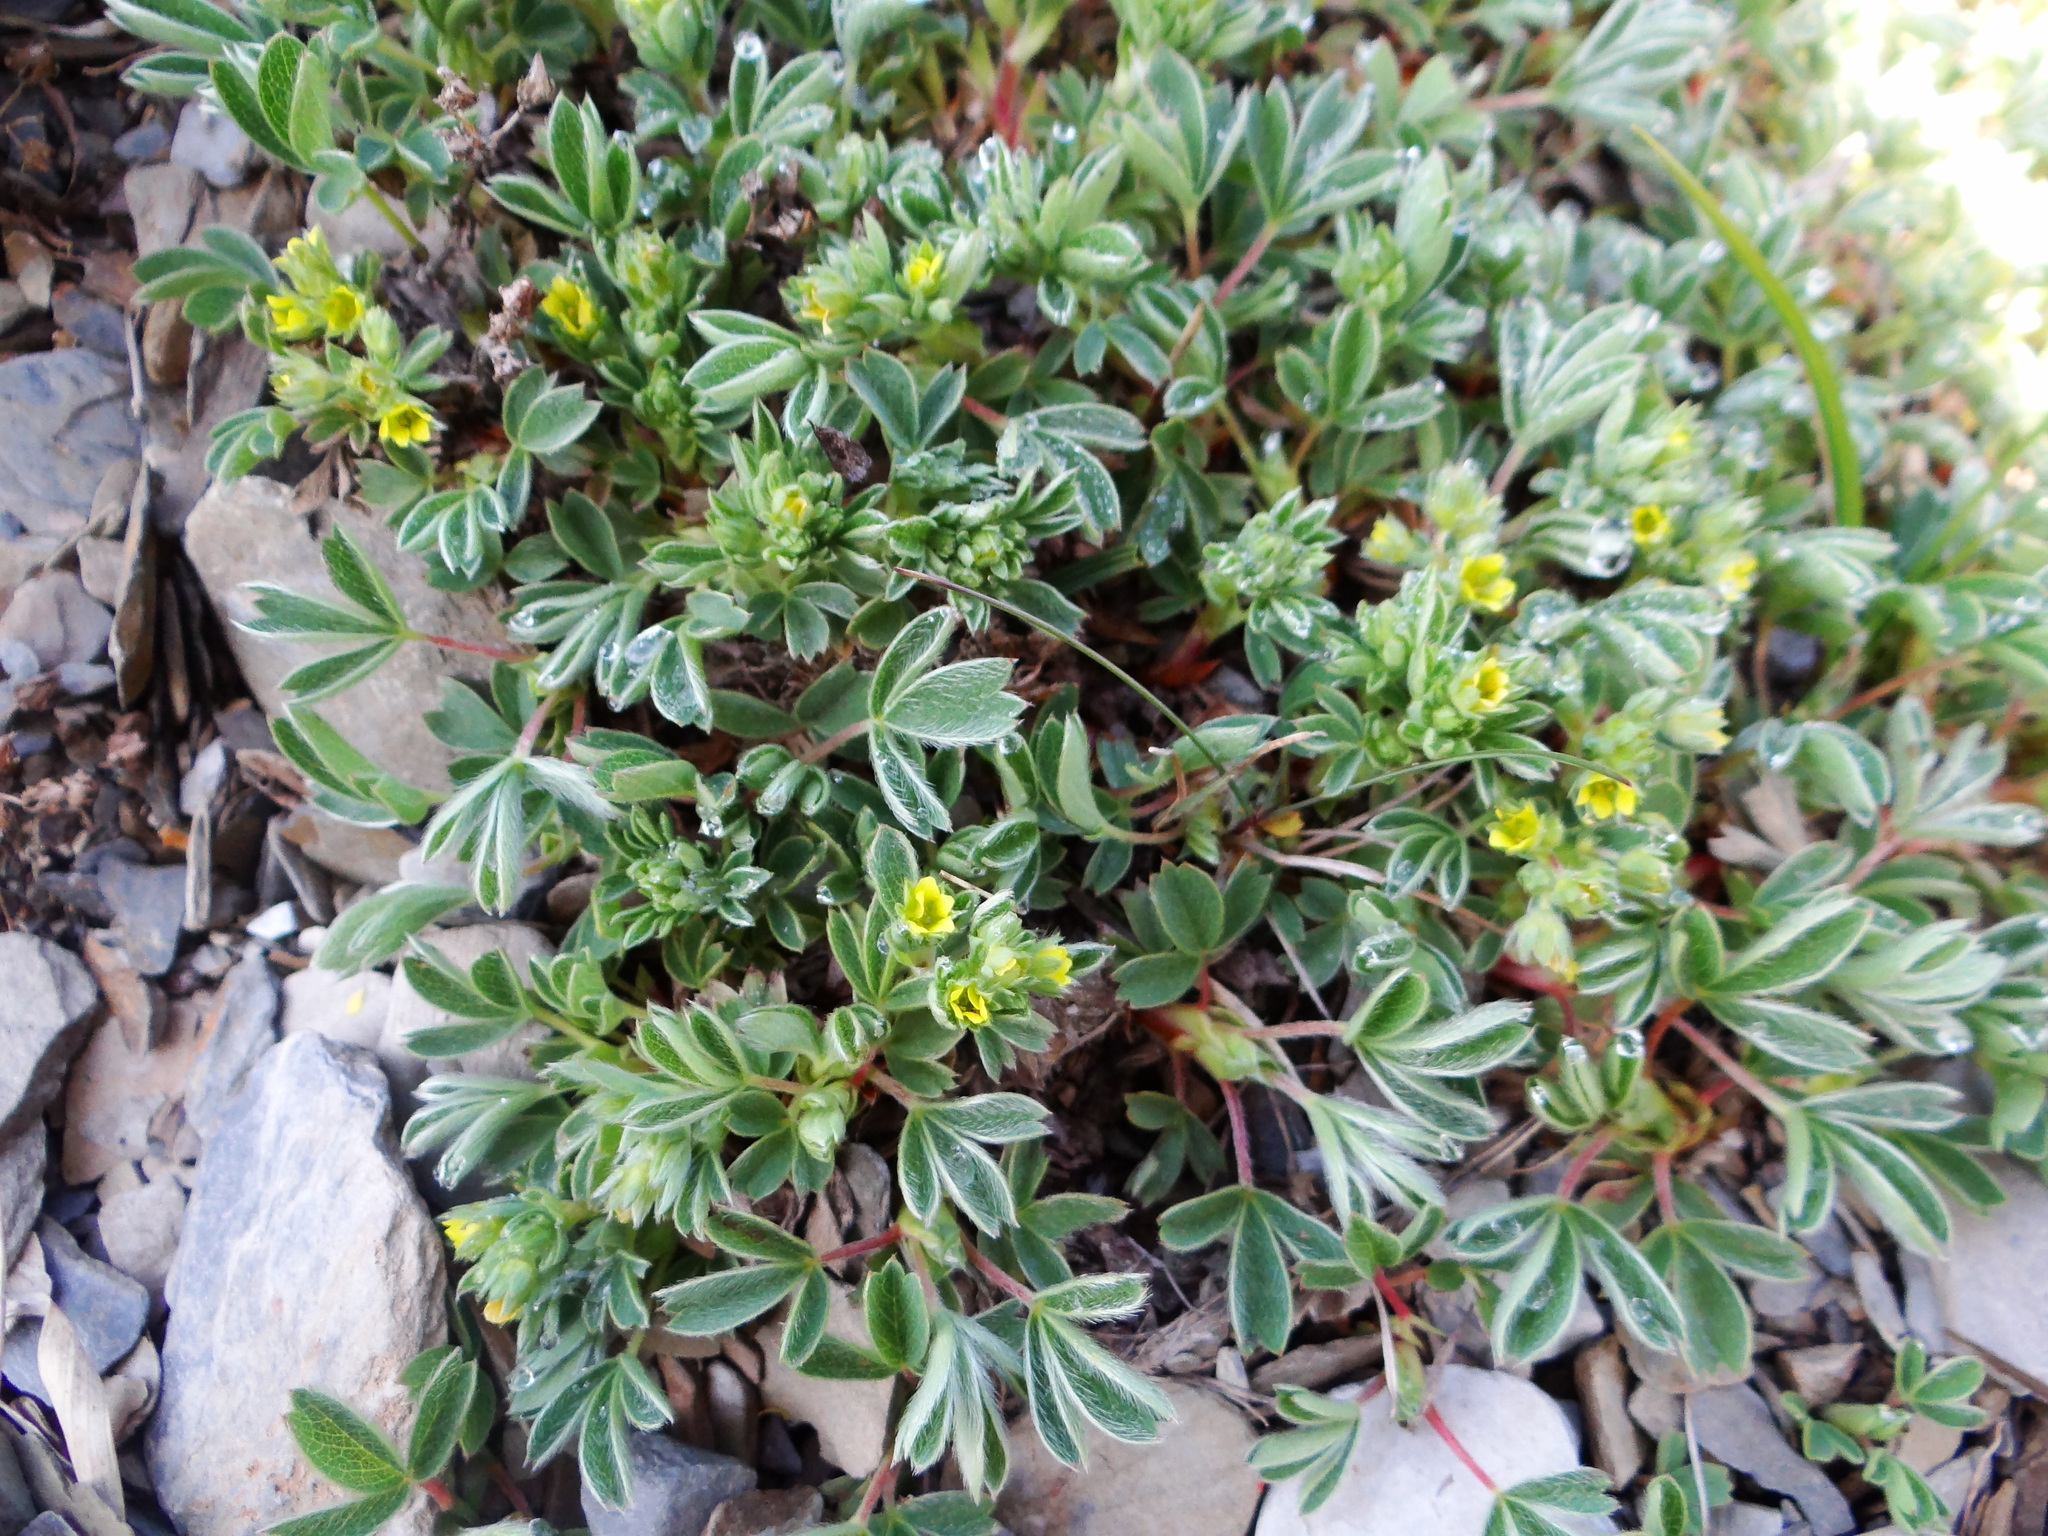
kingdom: Plantae
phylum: Tracheophyta
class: Magnoliopsida
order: Rosales
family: Rosaceae
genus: Sibbaldia
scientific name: Sibbaldia procumbens
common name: Creeping sibbaldia
